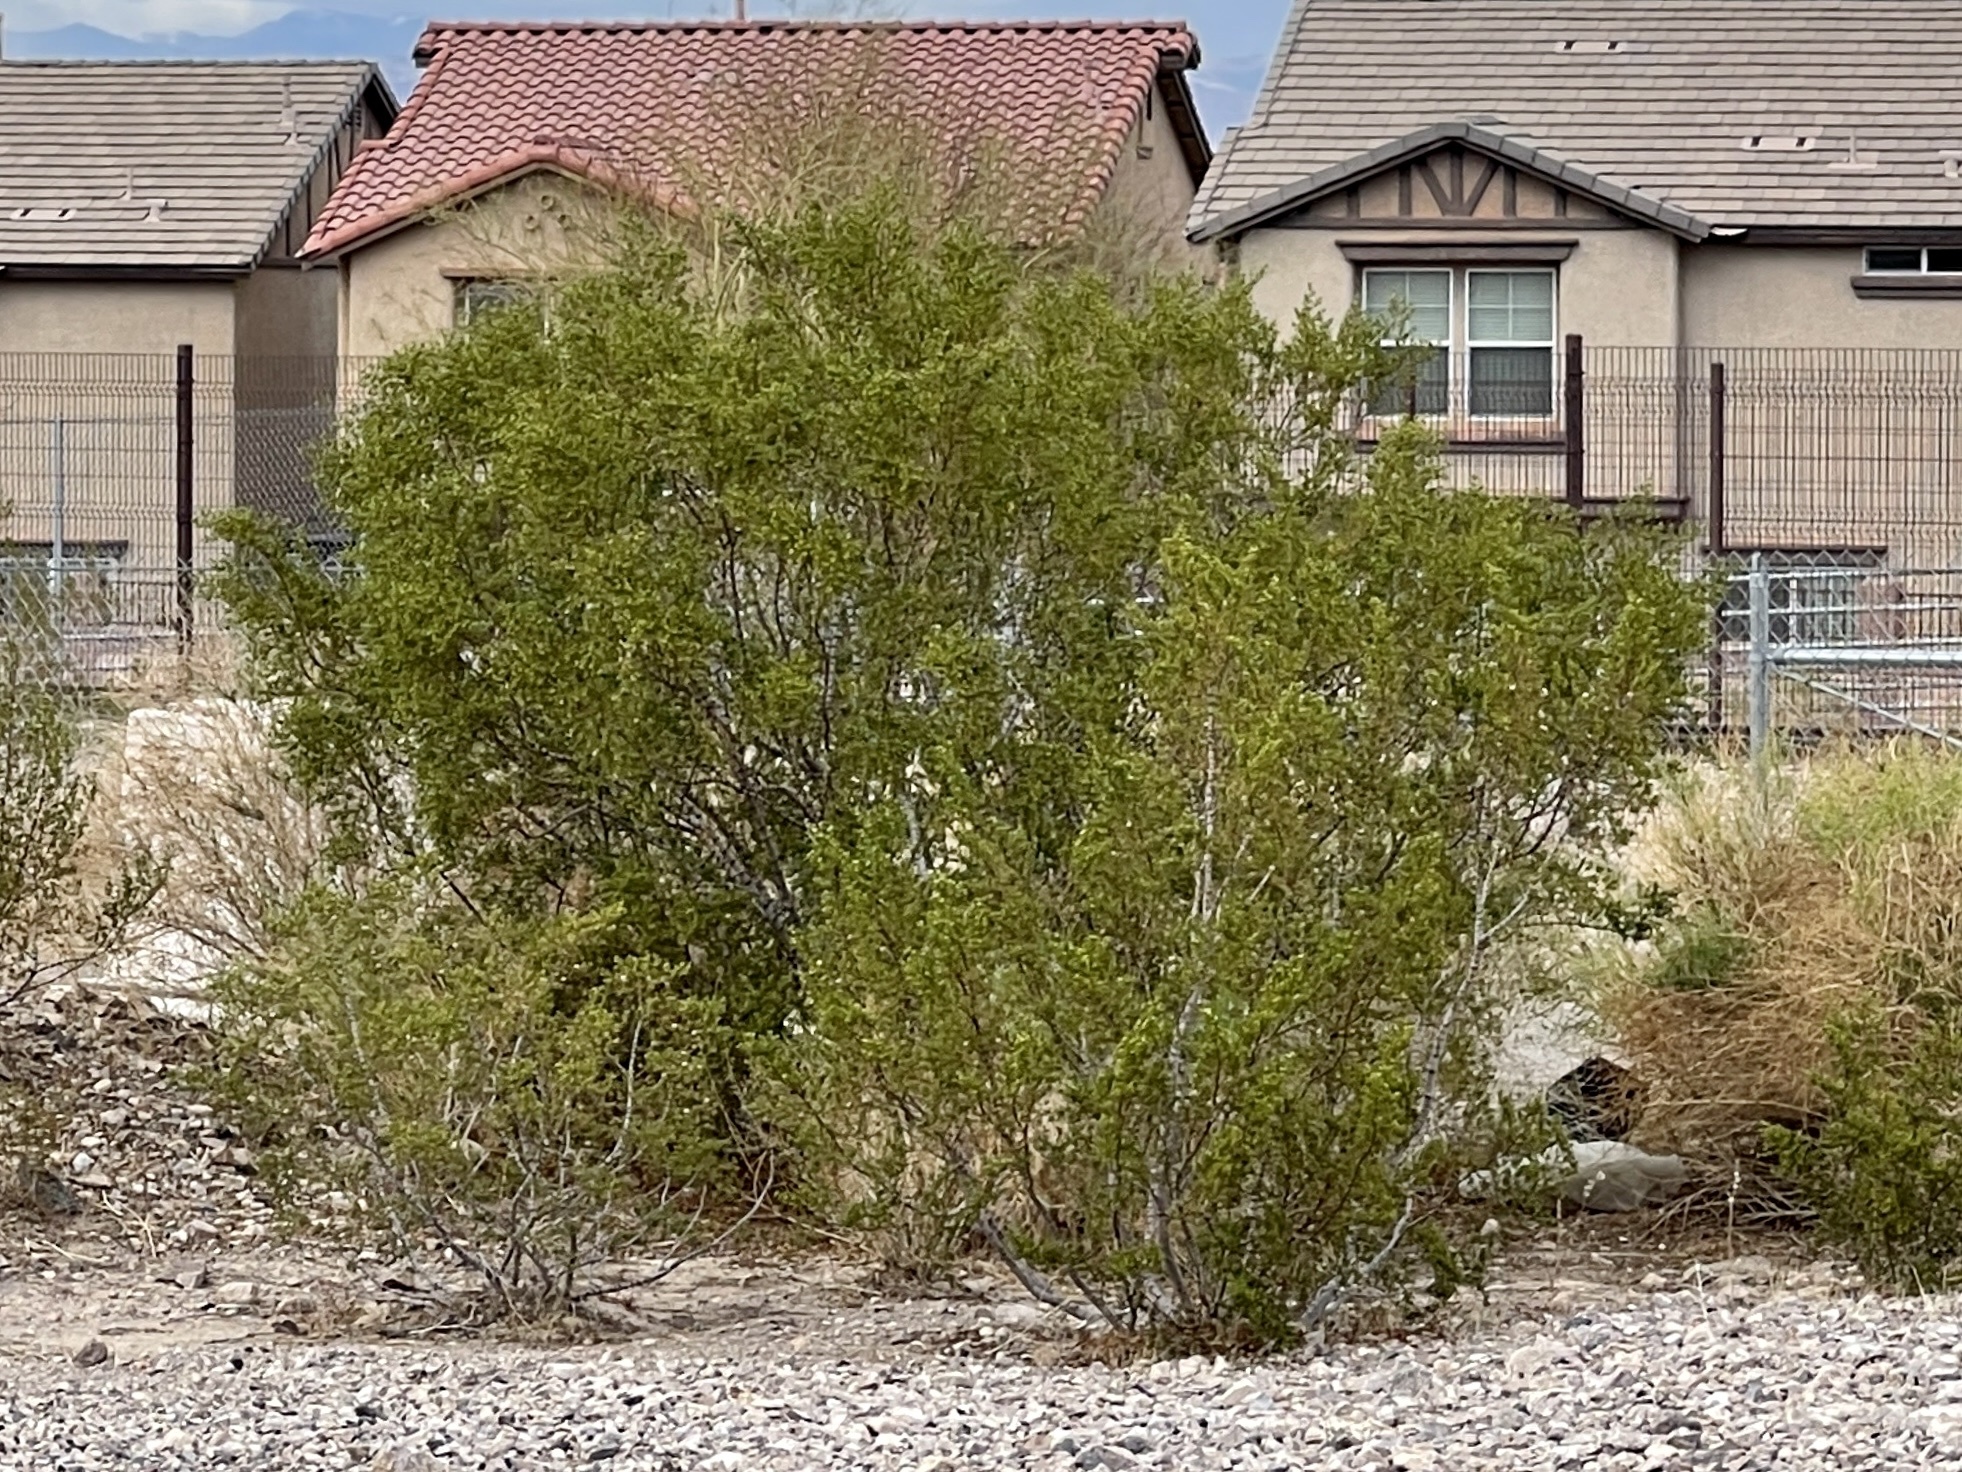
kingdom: Plantae
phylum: Tracheophyta
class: Magnoliopsida
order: Zygophyllales
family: Zygophyllaceae
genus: Larrea
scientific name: Larrea tridentata
